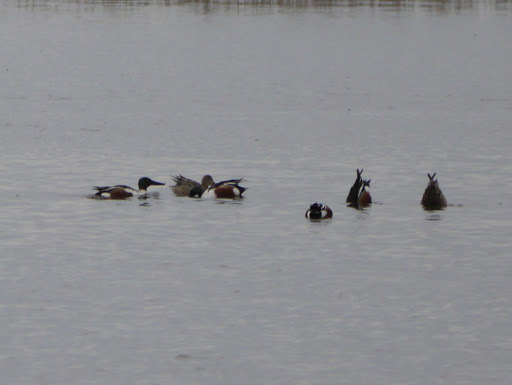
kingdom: Animalia
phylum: Chordata
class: Aves
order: Anseriformes
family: Anatidae
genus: Spatula
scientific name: Spatula clypeata
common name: Northern shoveler
